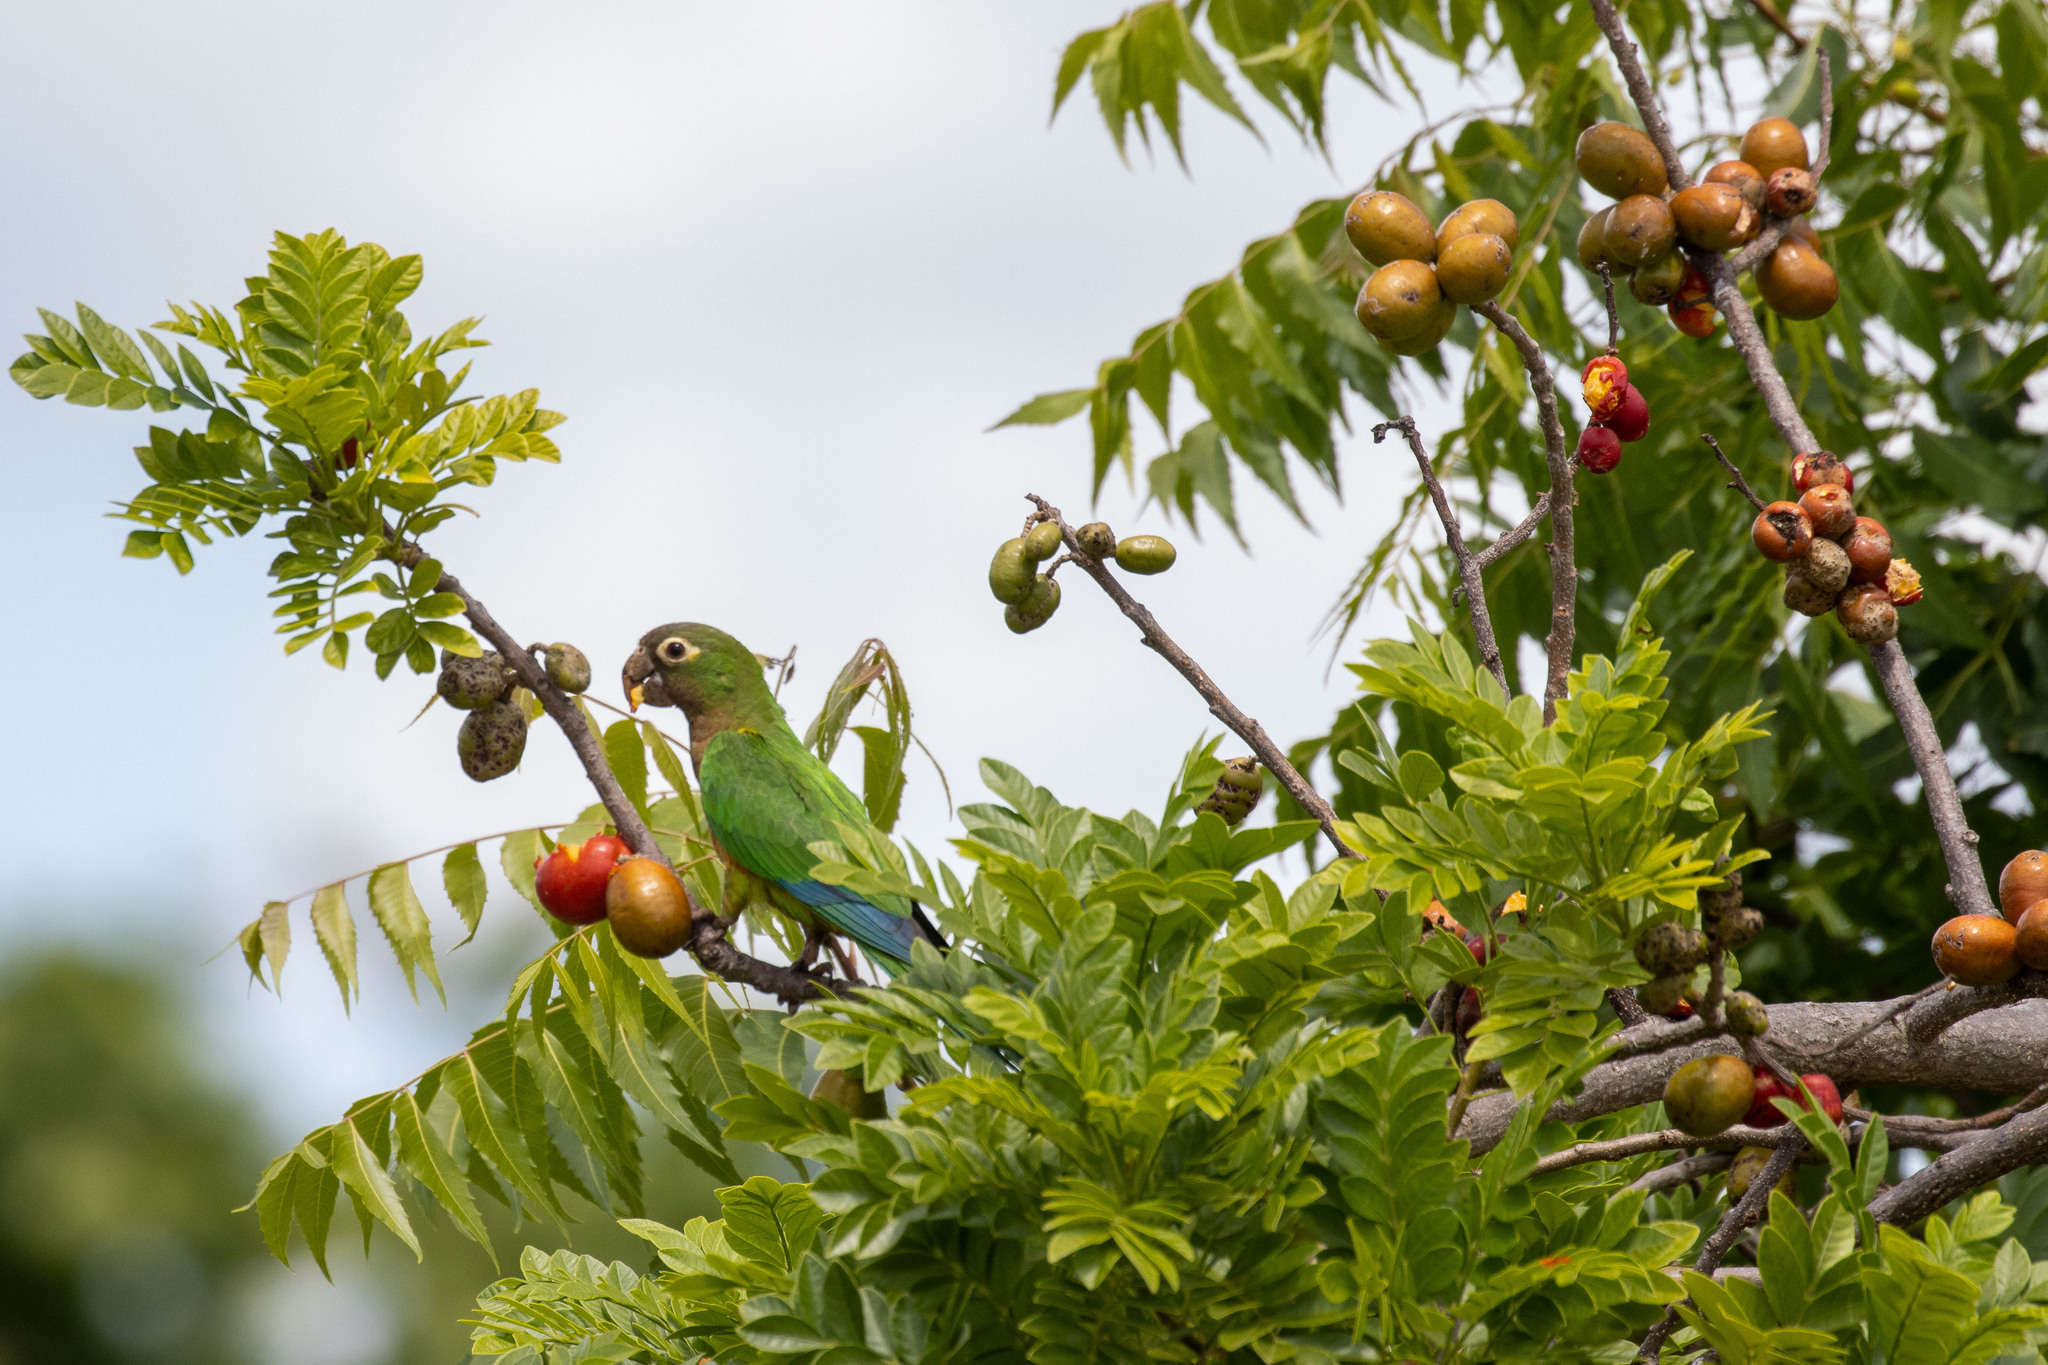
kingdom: Animalia
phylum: Chordata
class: Aves
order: Psittaciformes
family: Psittacidae
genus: Aratinga
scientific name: Aratinga cactorum
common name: Caatinga parakeet
